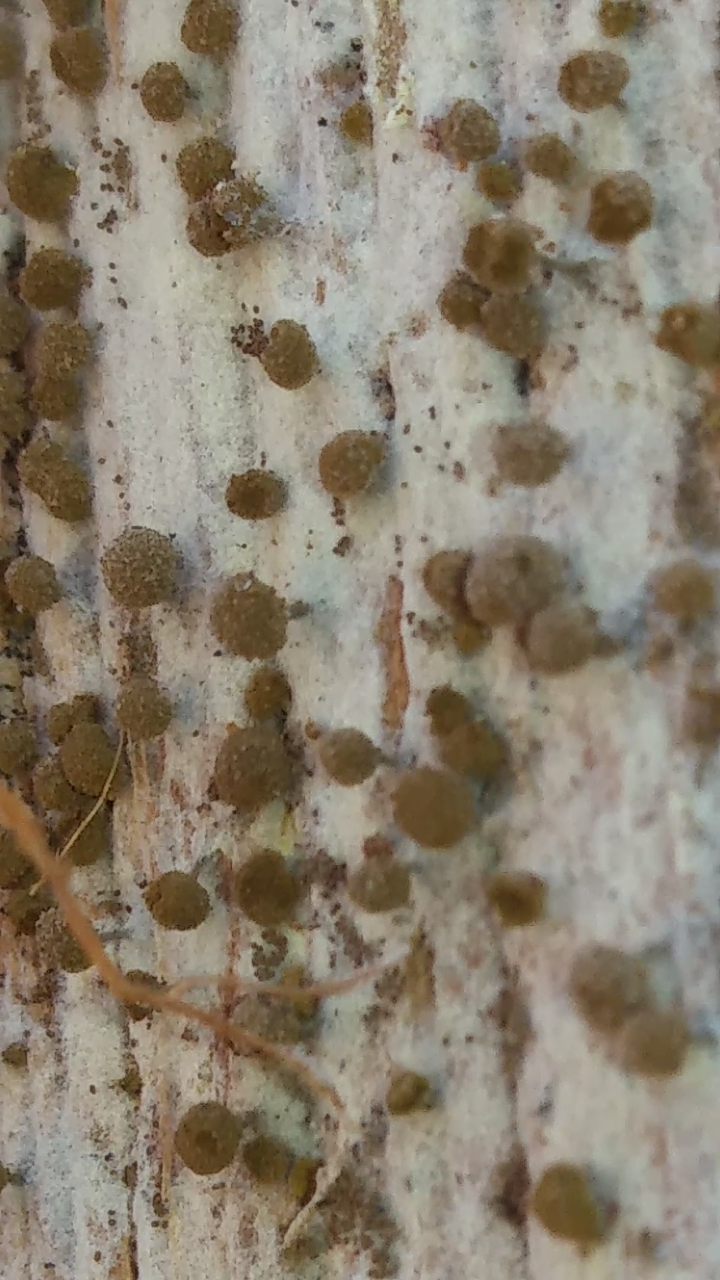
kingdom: Fungi
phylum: Basidiomycota
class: Atractiellomycetes
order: Atractiellales
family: Phleogenaceae
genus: Phleogena
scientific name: Phleogena faginea
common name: Fenugreek stalkball
